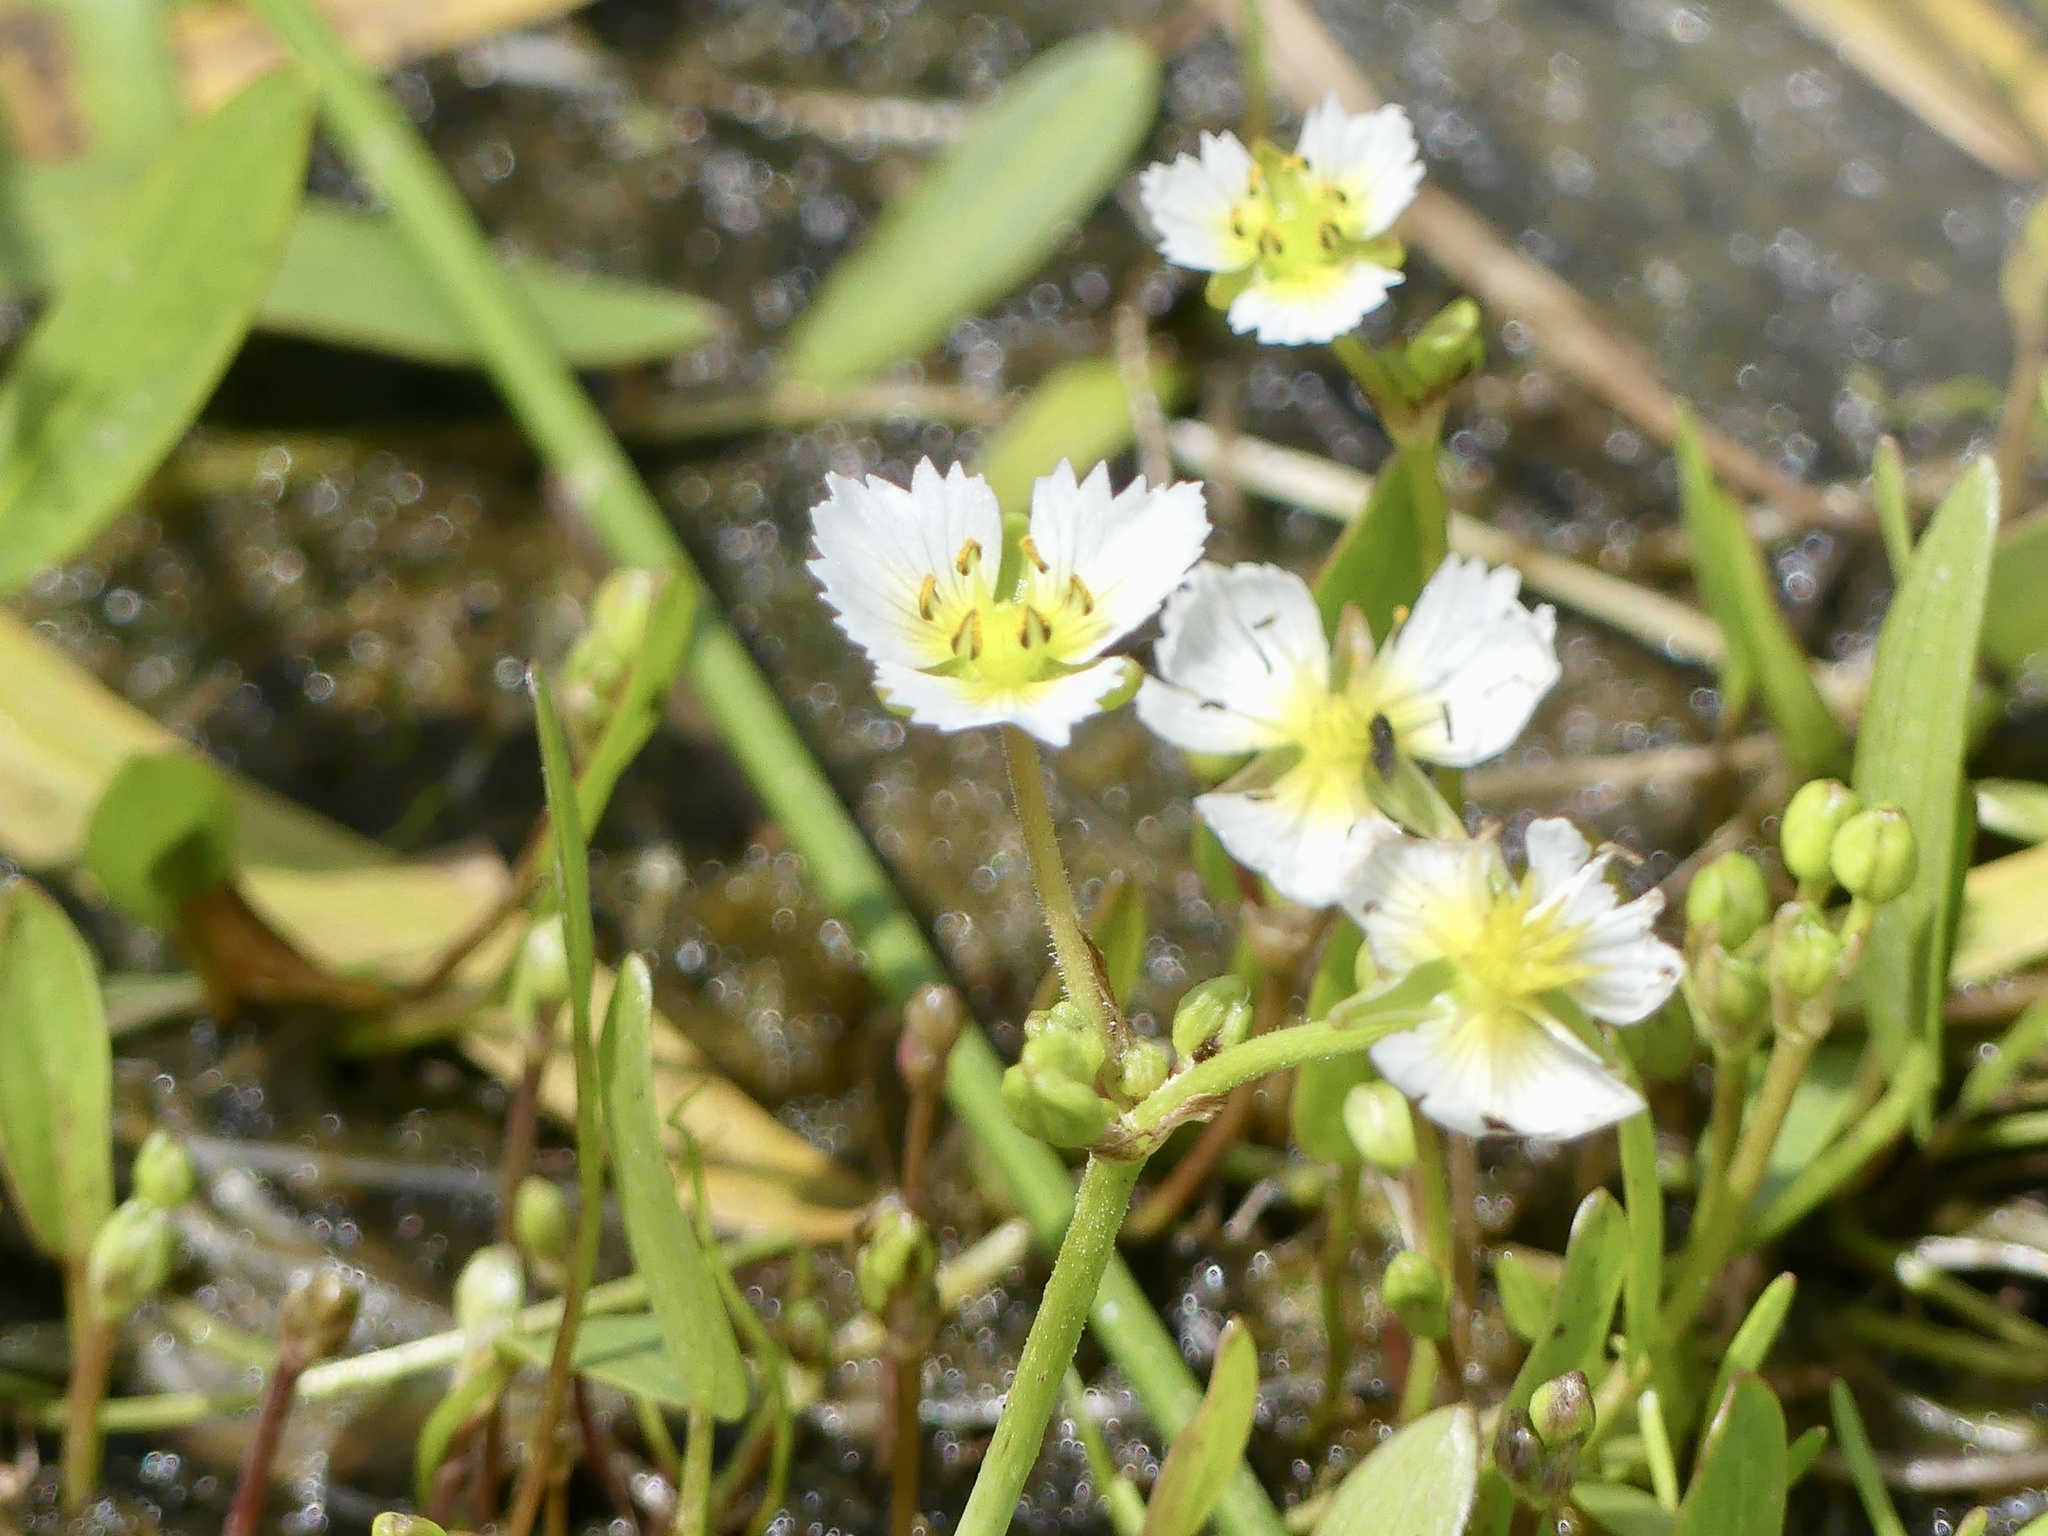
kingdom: Plantae
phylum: Tracheophyta
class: Liliopsida
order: Alismatales
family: Alismataceae
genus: Damasonium
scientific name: Damasonium californicum
